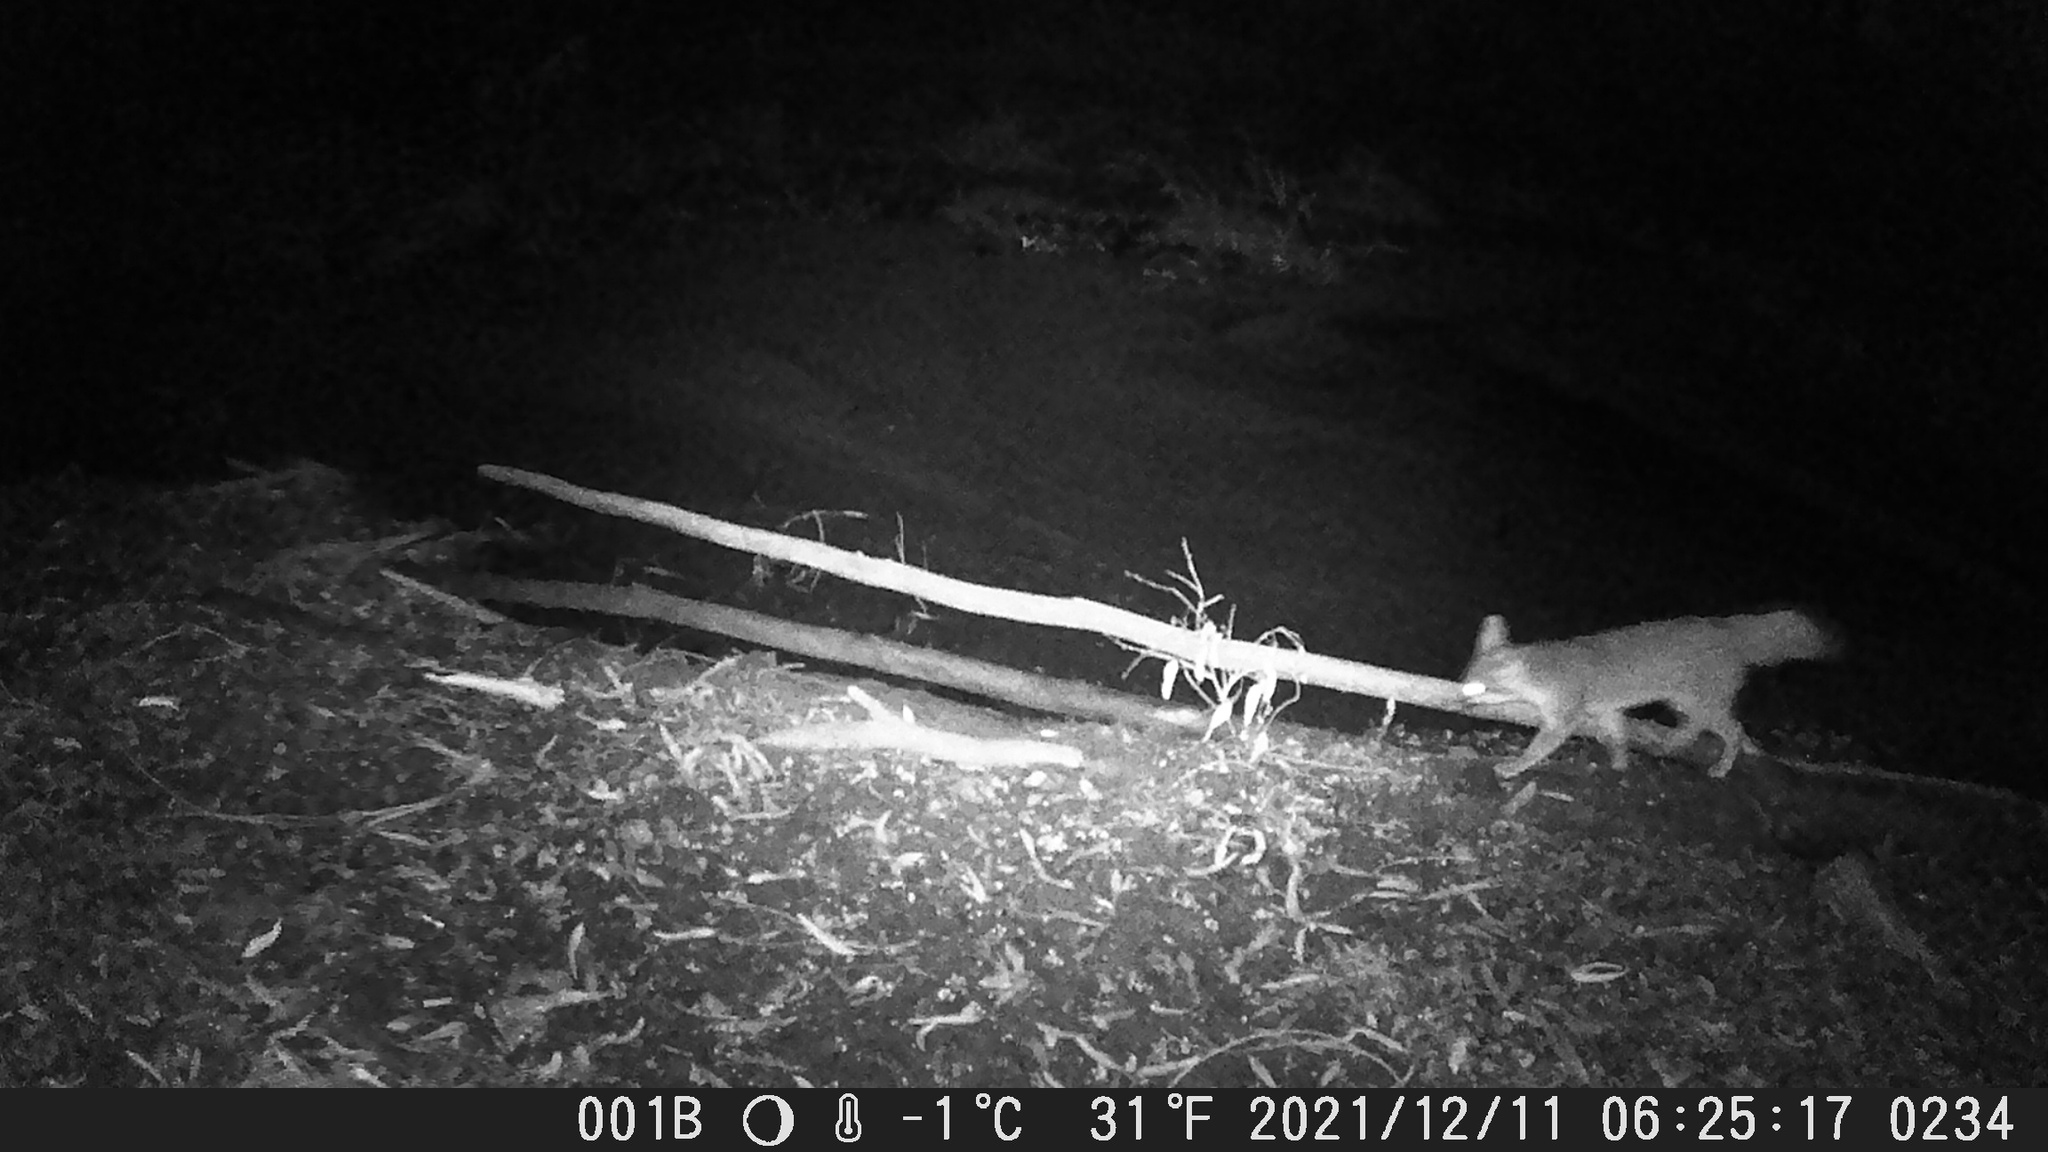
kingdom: Animalia
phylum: Chordata
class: Mammalia
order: Carnivora
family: Canidae
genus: Urocyon
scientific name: Urocyon cinereoargenteus
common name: Gray fox
